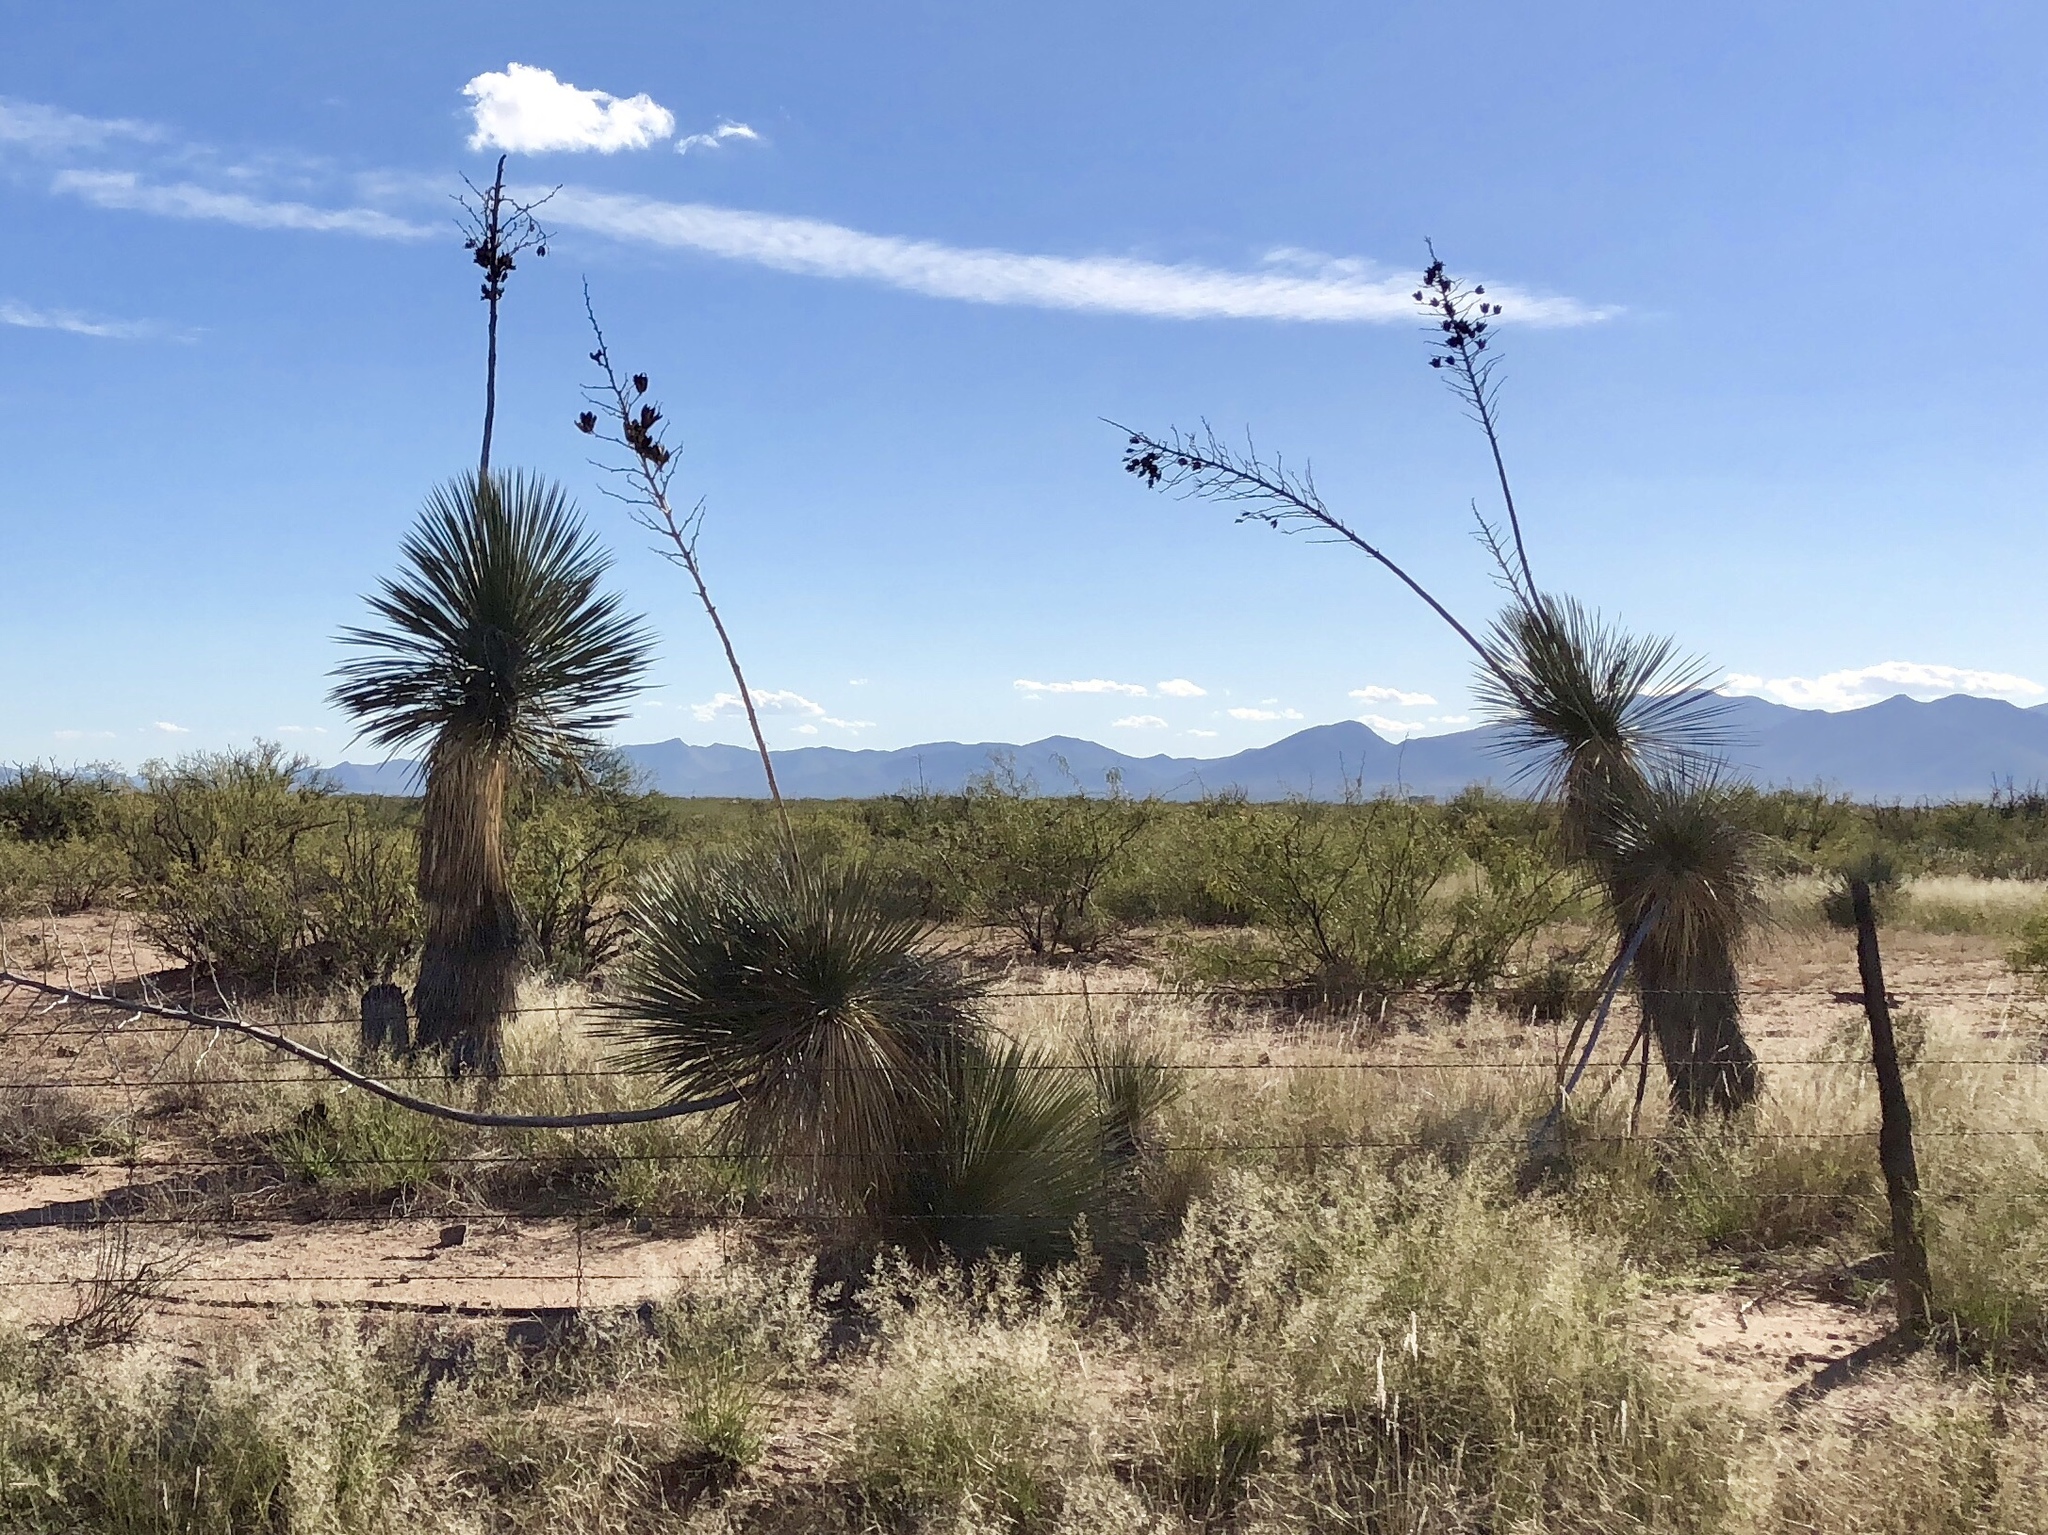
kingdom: Plantae
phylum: Tracheophyta
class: Liliopsida
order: Asparagales
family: Asparagaceae
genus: Yucca
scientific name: Yucca elata
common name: Palmella
